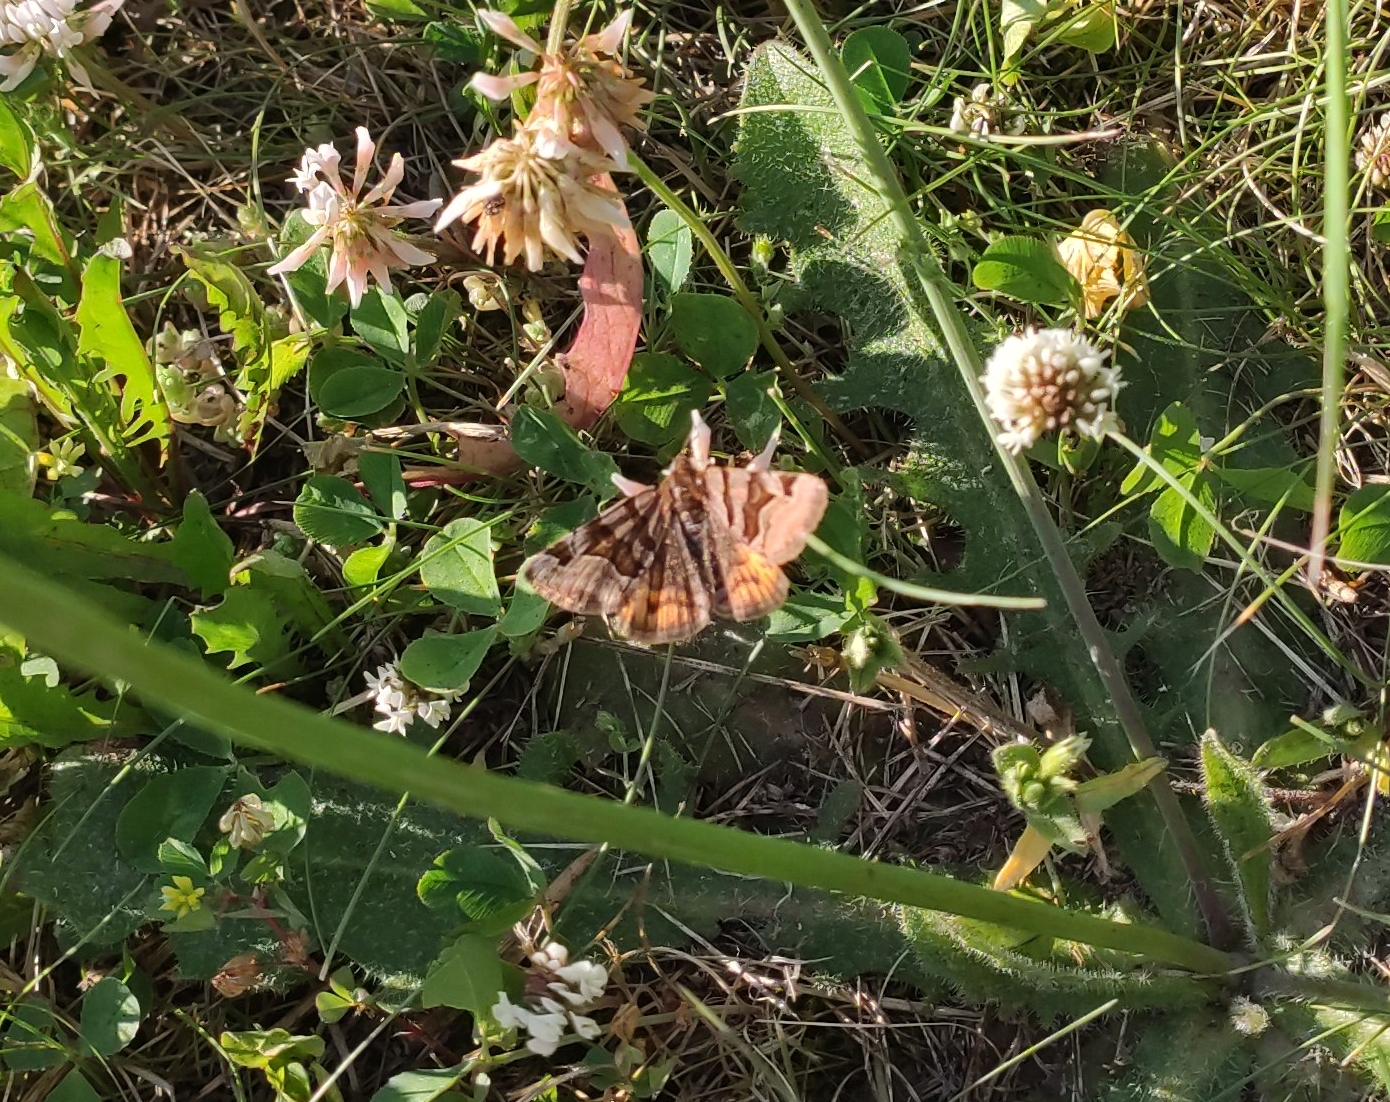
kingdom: Animalia
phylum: Arthropoda
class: Insecta
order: Lepidoptera
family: Erebidae
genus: Euclidia
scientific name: Euclidia glyphica
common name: Burnet companion
